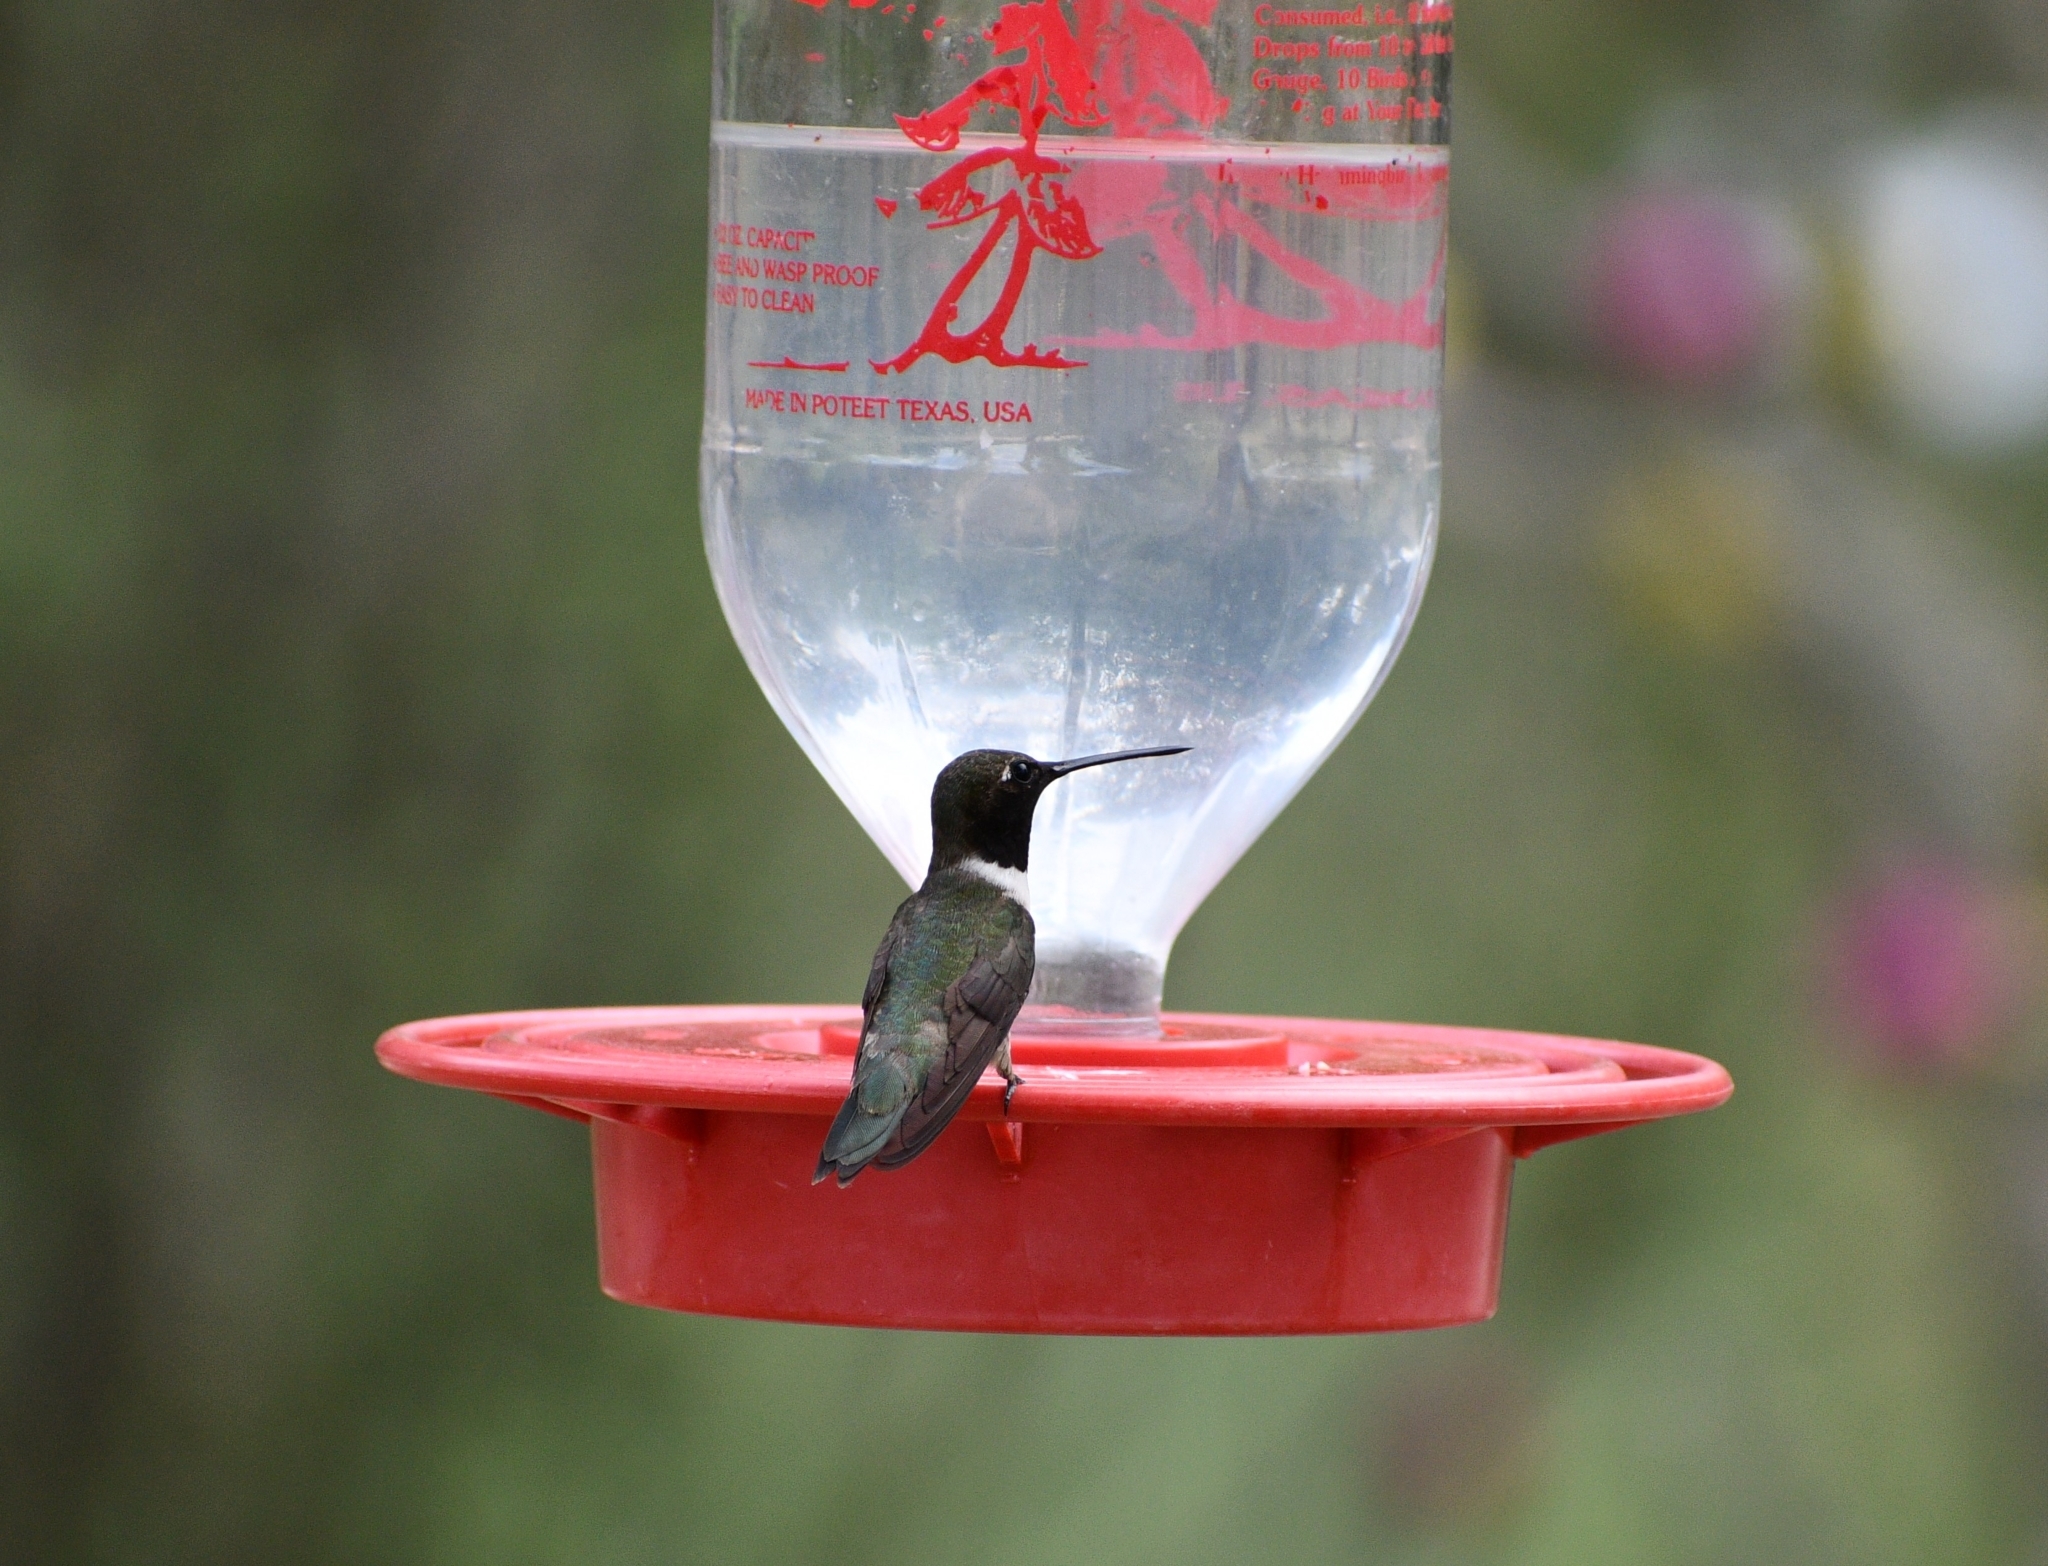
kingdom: Animalia
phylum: Chordata
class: Aves
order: Apodiformes
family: Trochilidae
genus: Archilochus
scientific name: Archilochus alexandri
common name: Black-chinned hummingbird
